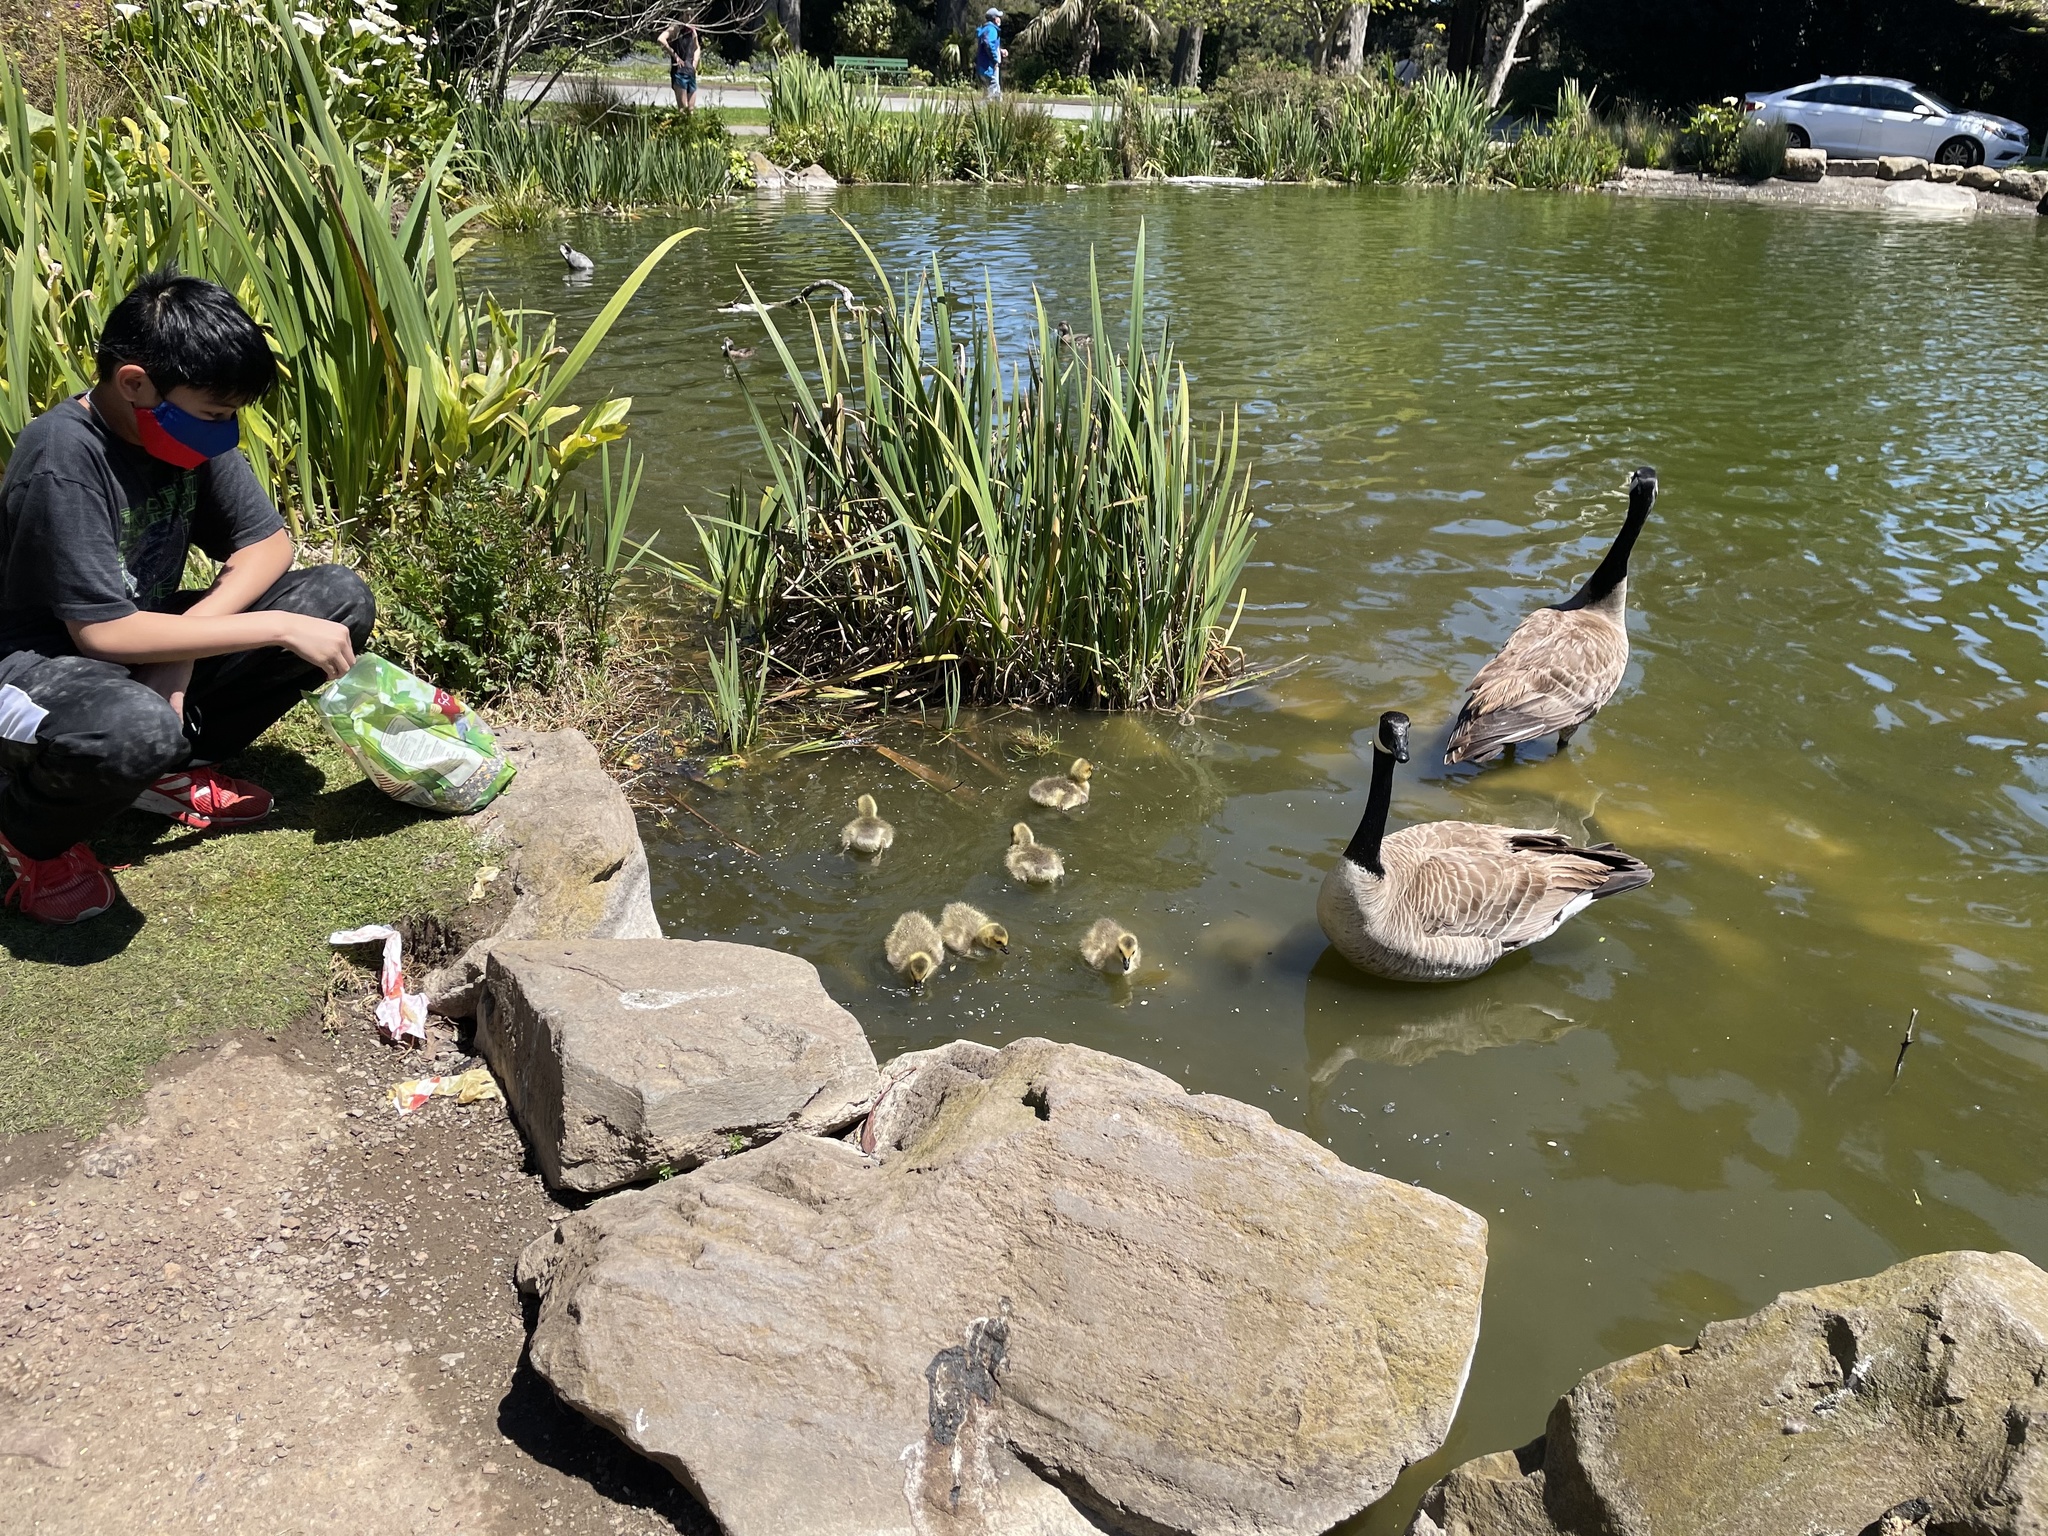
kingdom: Animalia
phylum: Chordata
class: Aves
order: Anseriformes
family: Anatidae
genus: Branta
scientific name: Branta canadensis
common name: Canada goose
